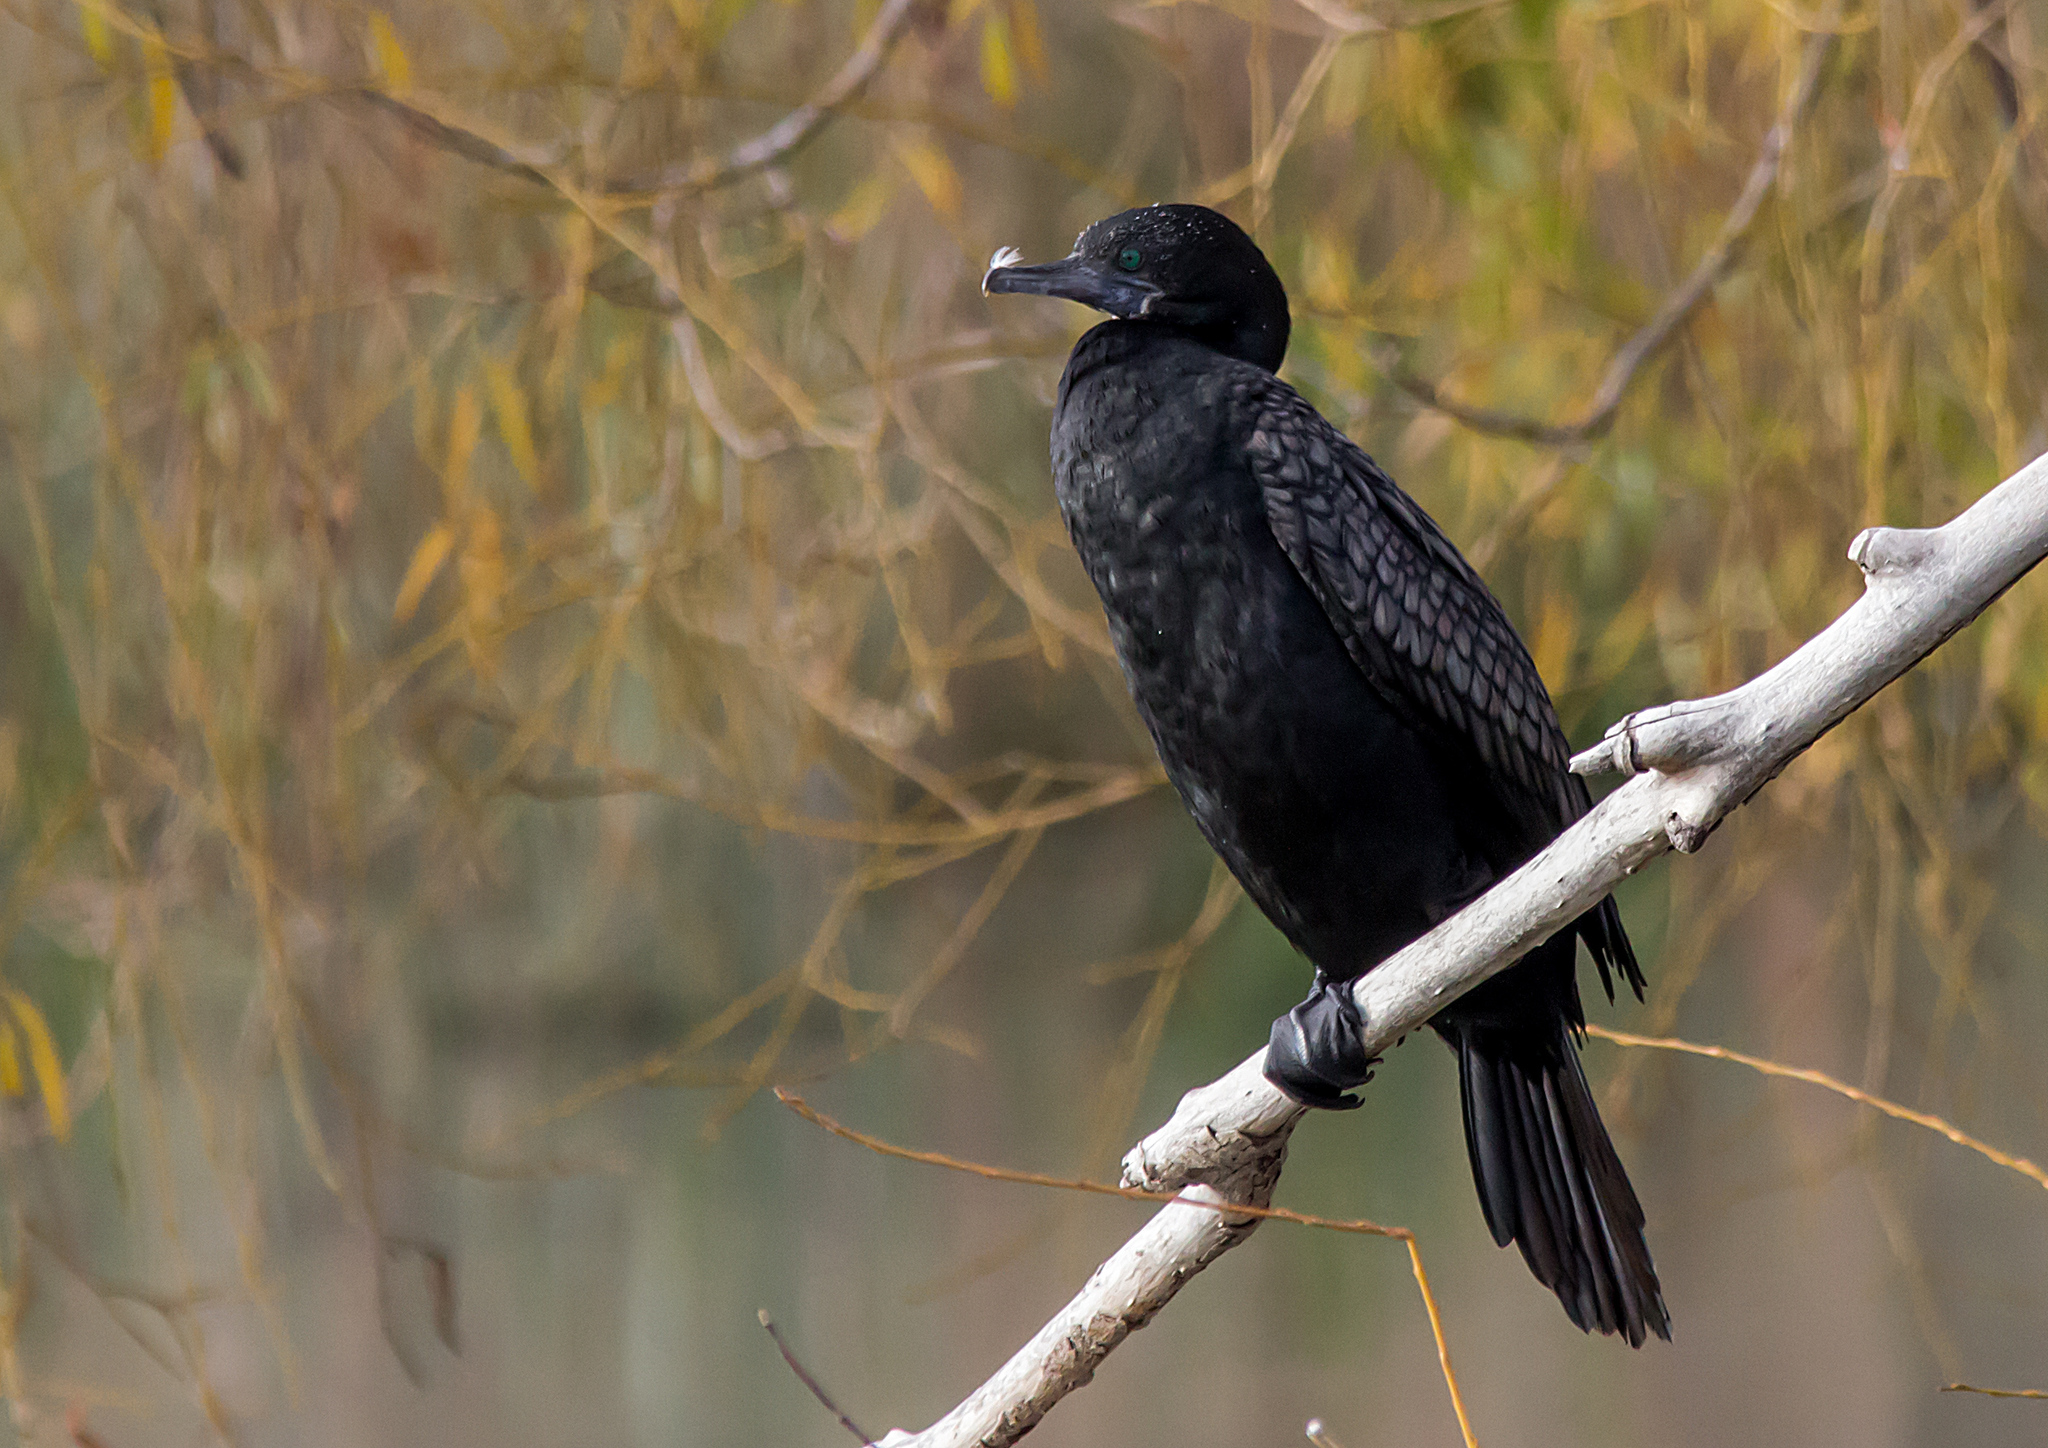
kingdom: Animalia
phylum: Chordata
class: Aves
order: Suliformes
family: Phalacrocoracidae
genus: Phalacrocorax
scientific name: Phalacrocorax sulcirostris
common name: Little black cormorant
